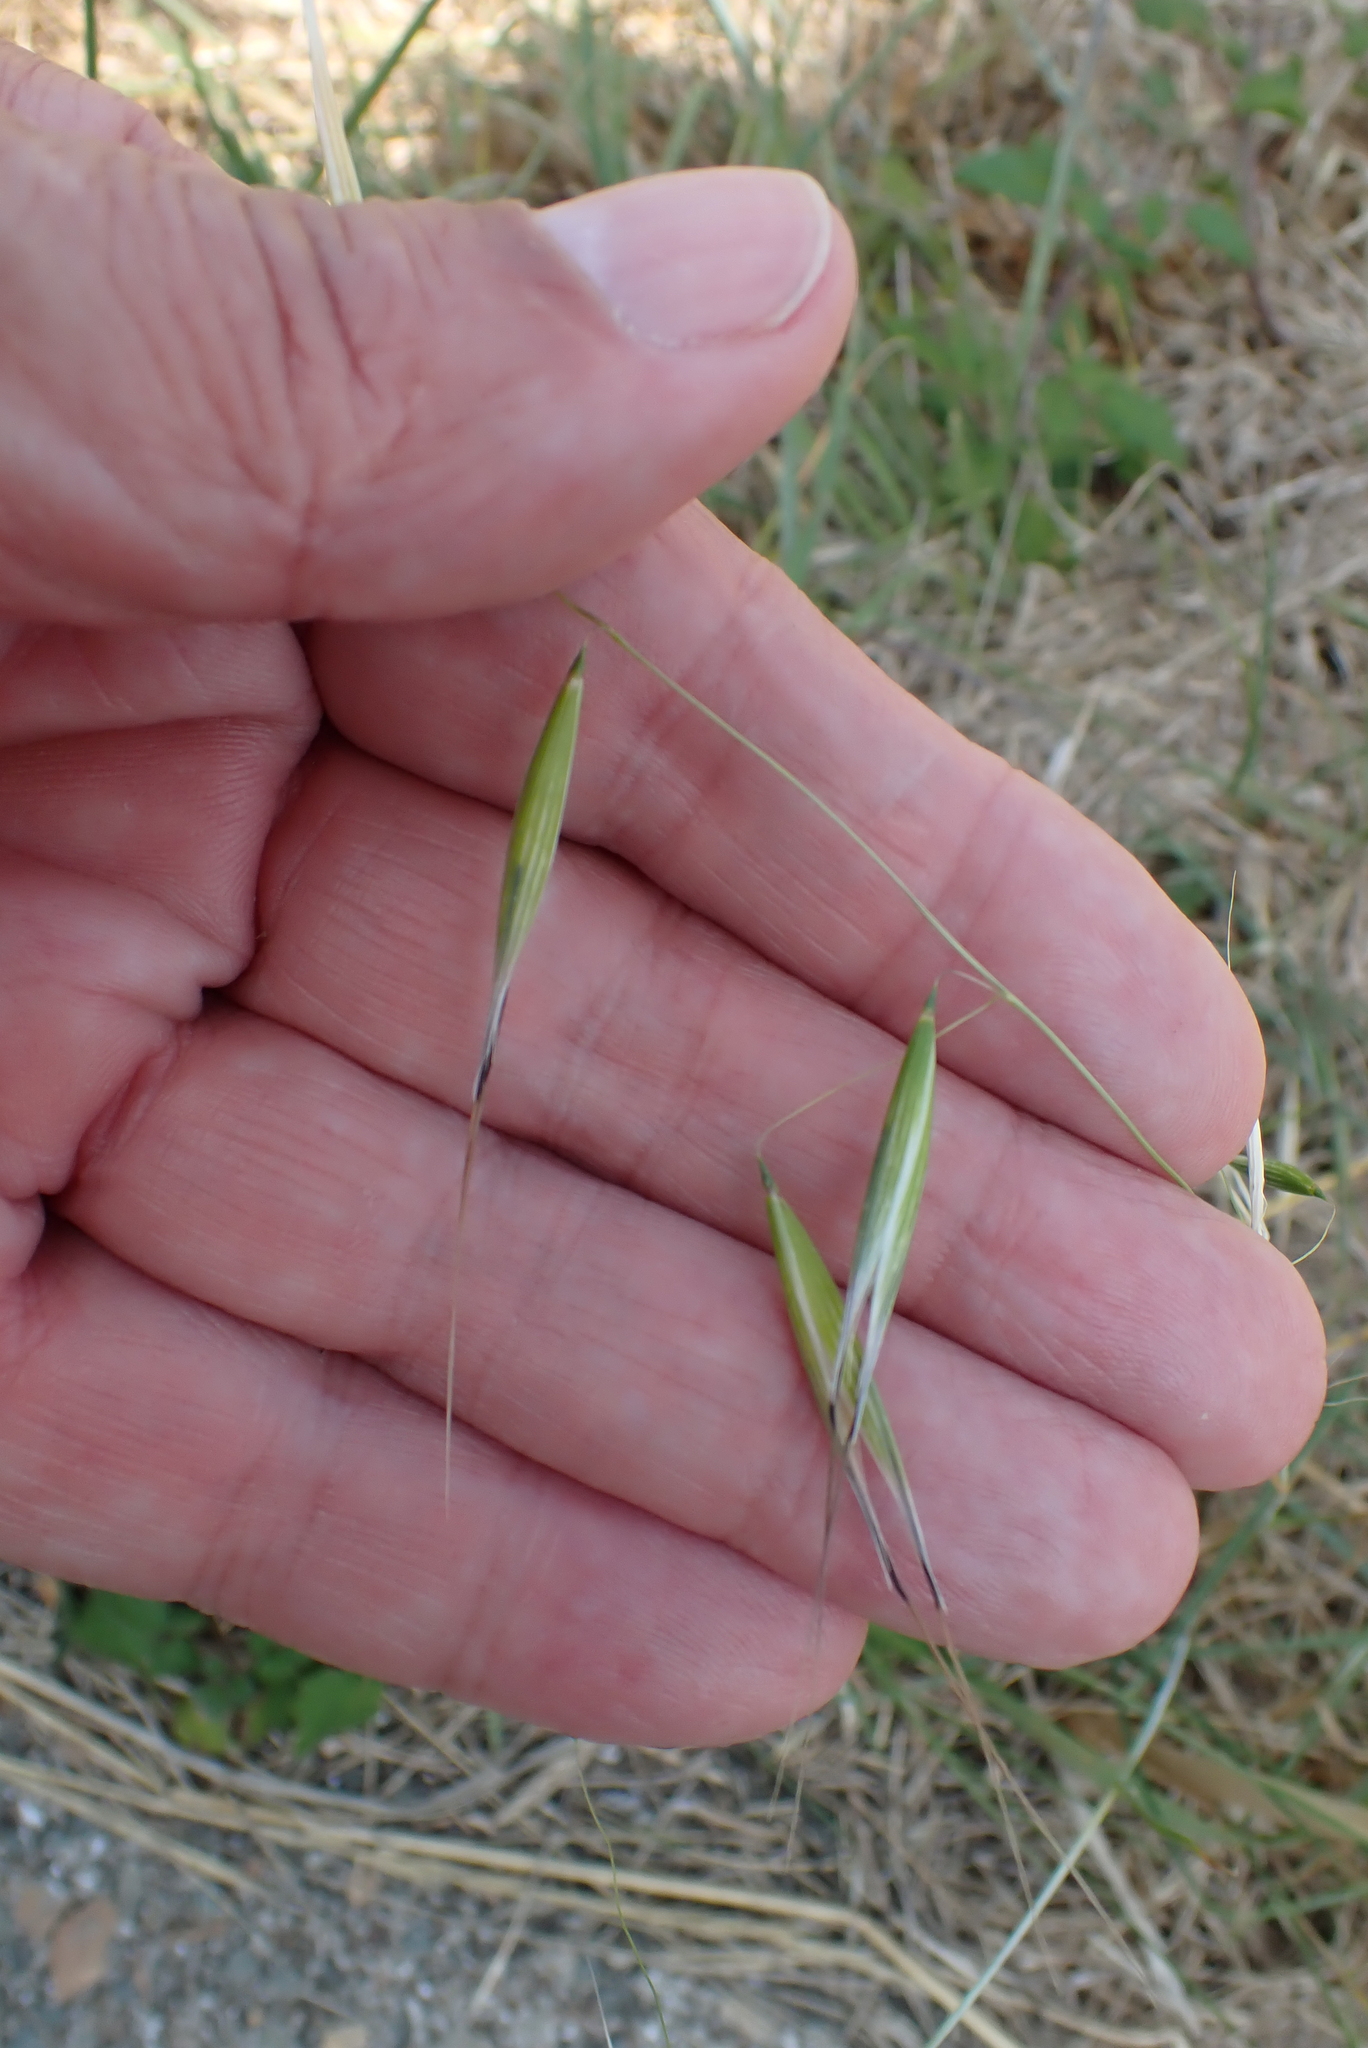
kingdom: Plantae
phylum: Tracheophyta
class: Liliopsida
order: Poales
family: Poaceae
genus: Avena
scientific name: Avena barbata
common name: Slender oat
